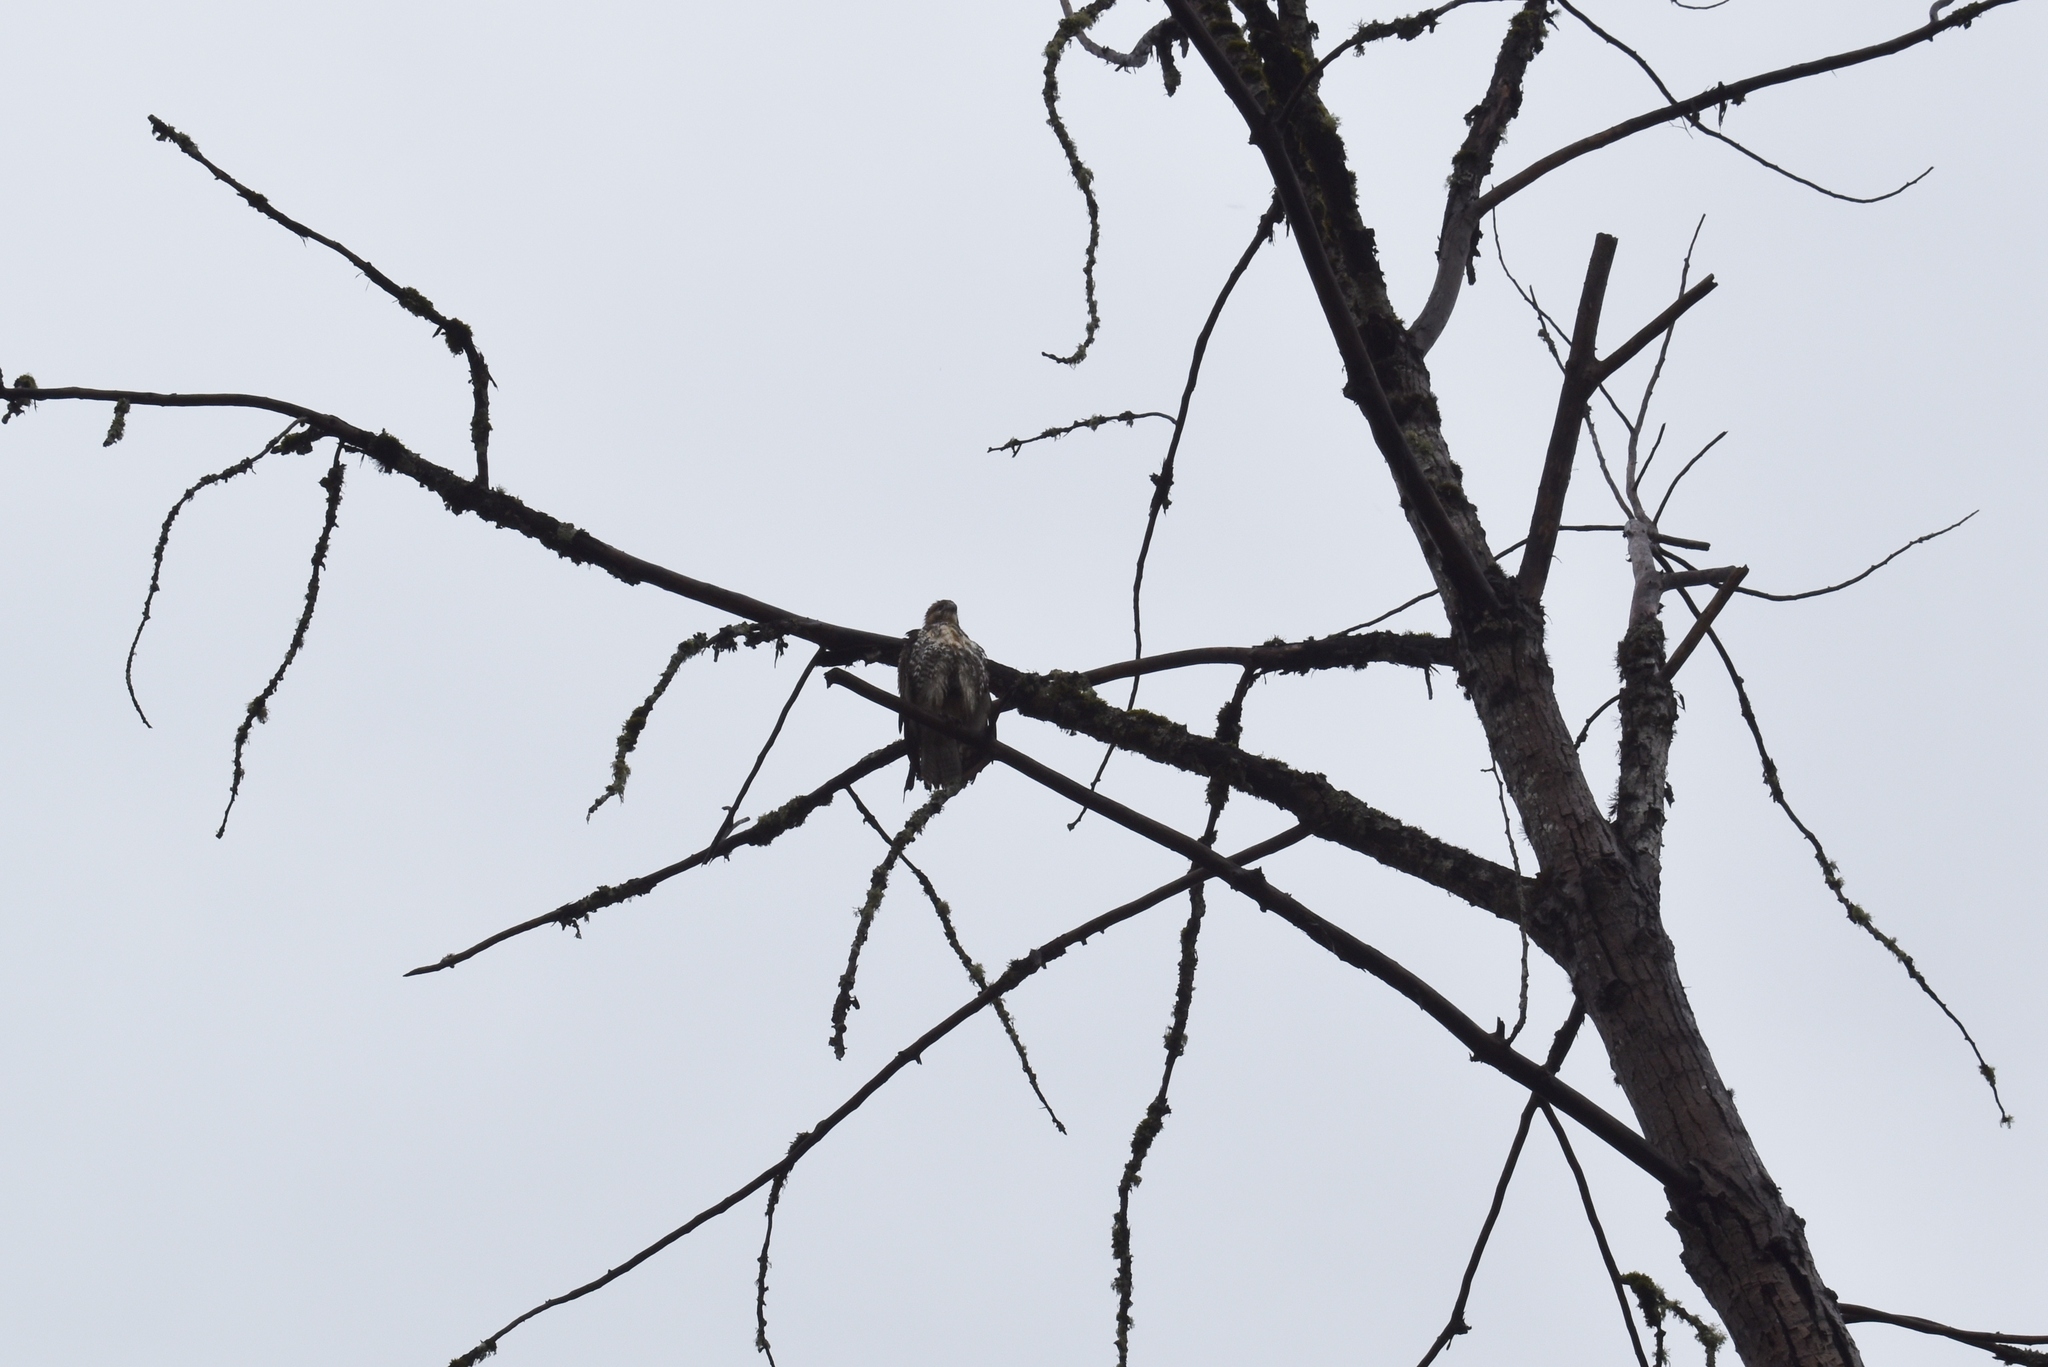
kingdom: Animalia
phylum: Chordata
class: Aves
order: Accipitriformes
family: Accipitridae
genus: Buteo
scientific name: Buteo jamaicensis
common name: Red-tailed hawk
